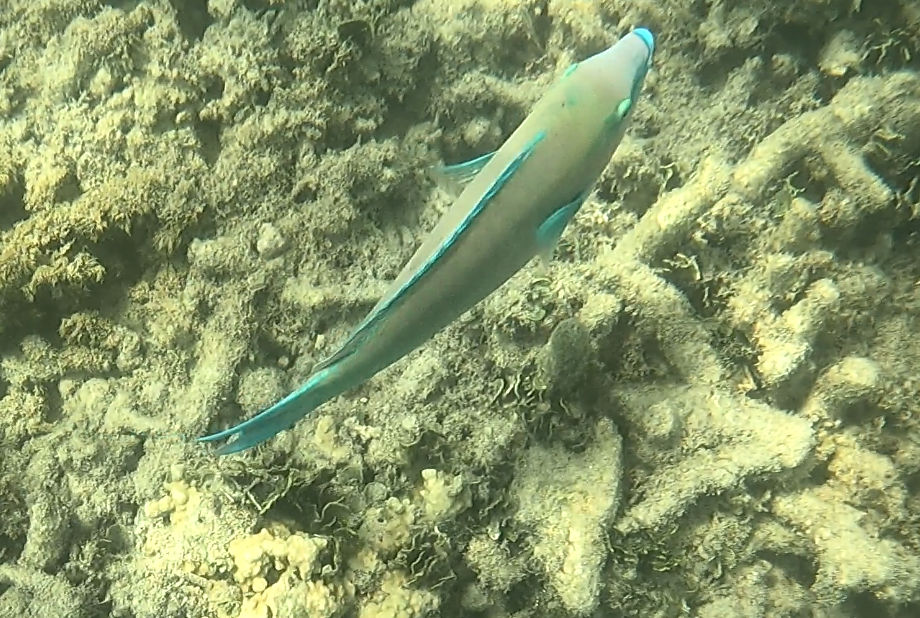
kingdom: Animalia
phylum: Chordata
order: Perciformes
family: Scaridae
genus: Scarus
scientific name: Scarus psittacus
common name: Palenose parrotfish
